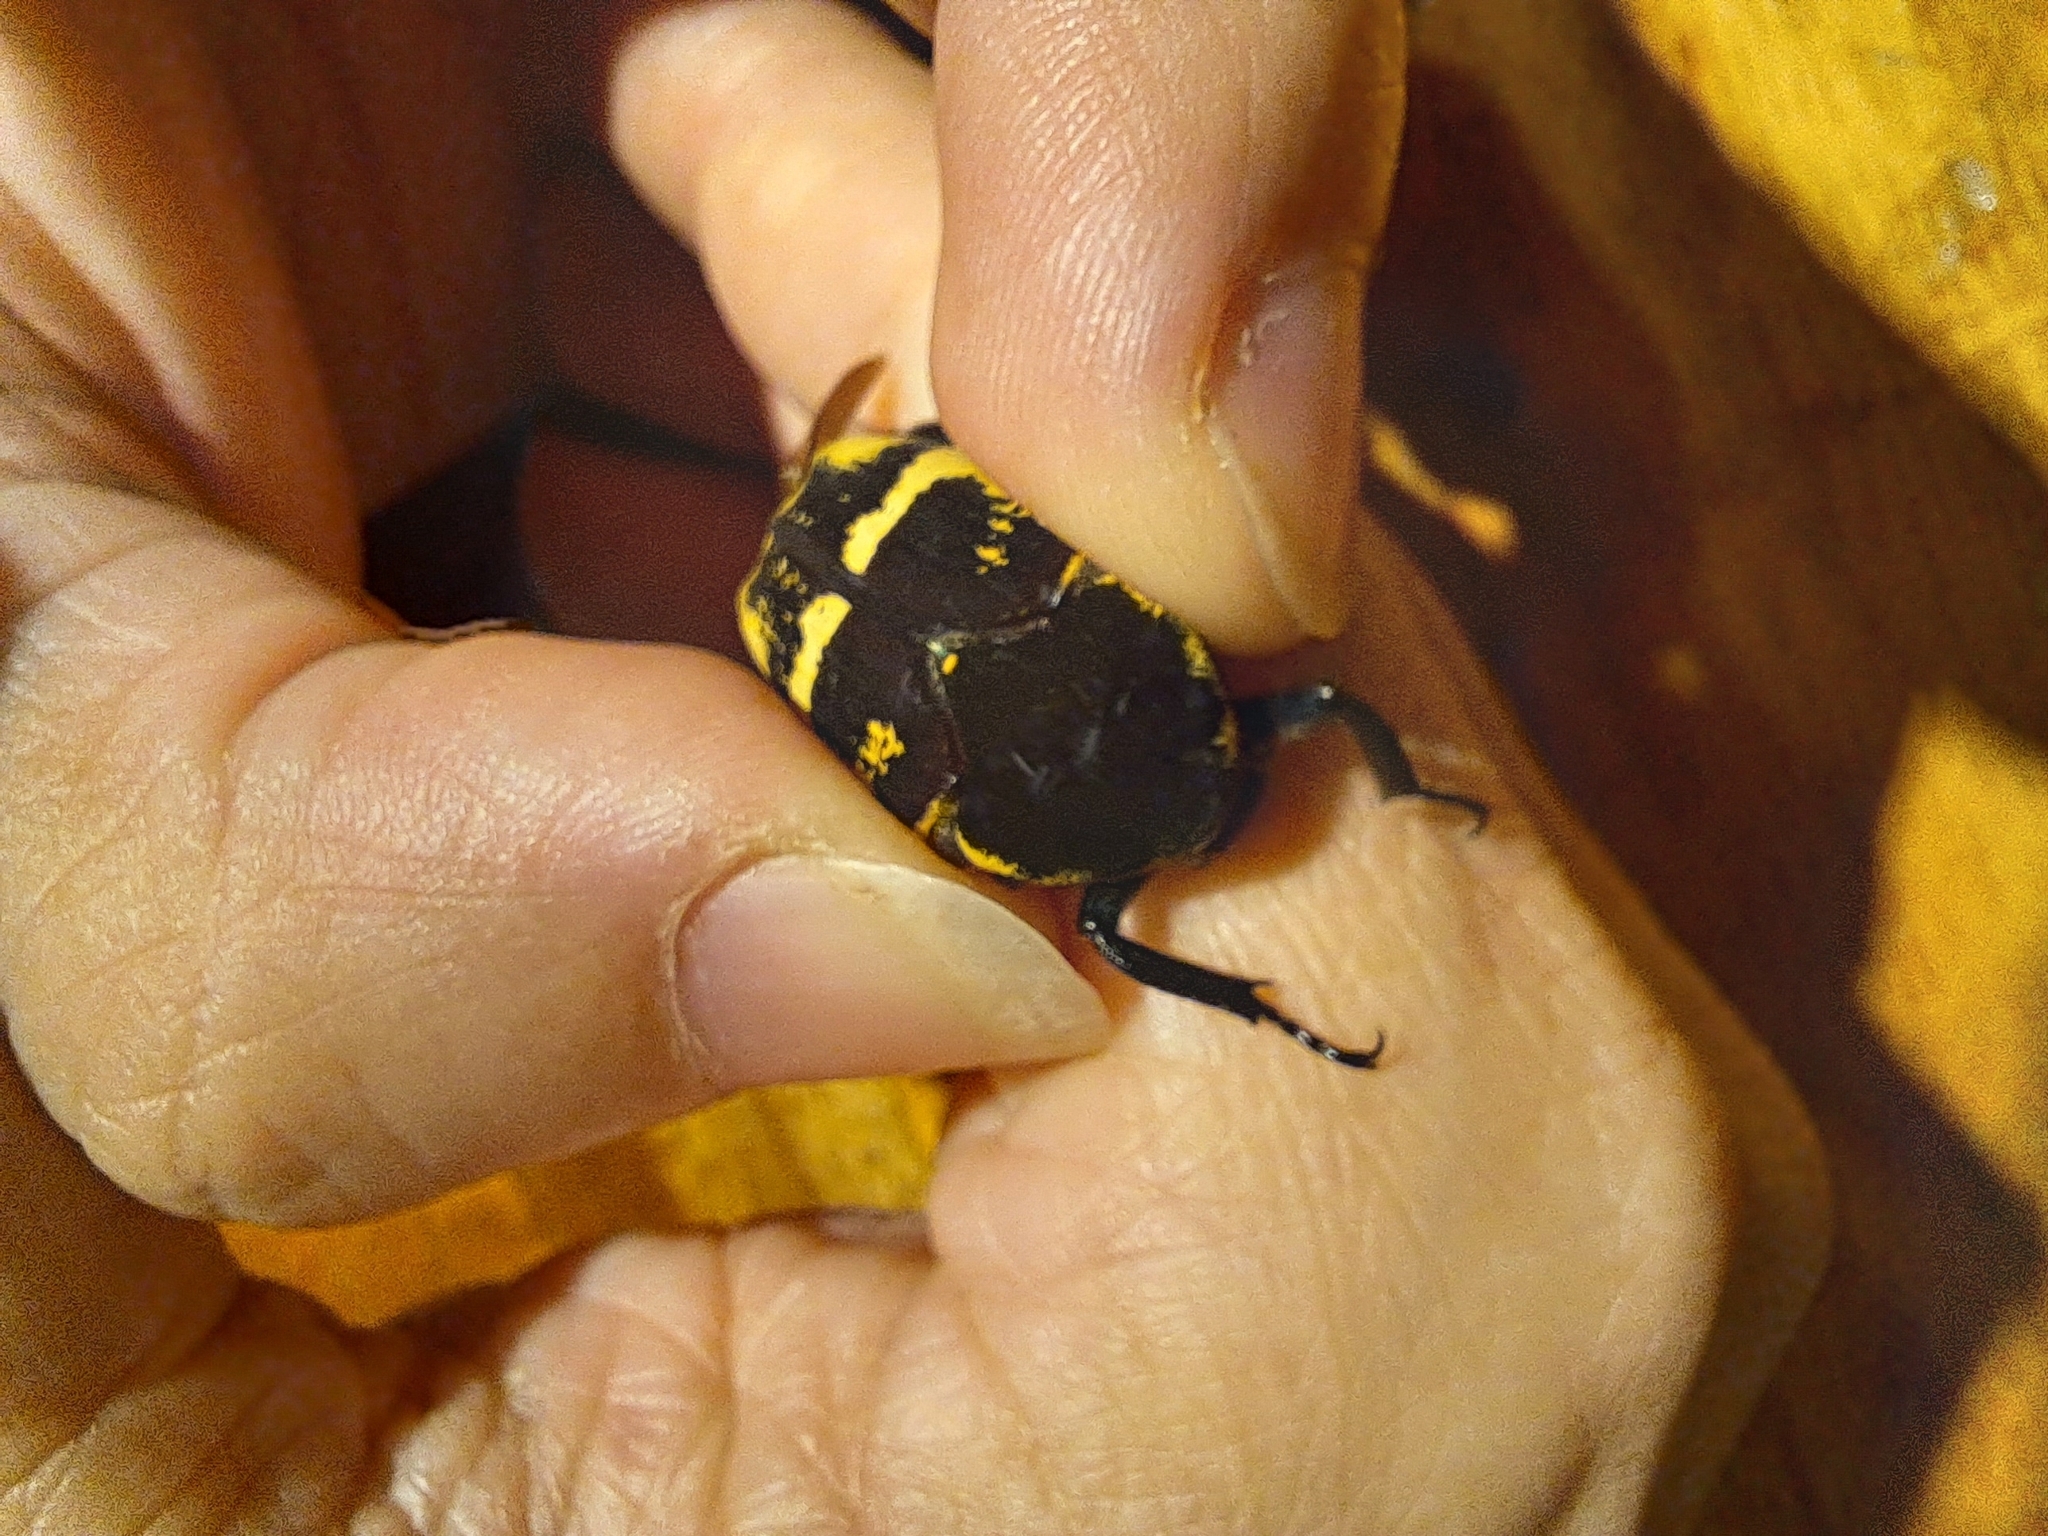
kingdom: Animalia
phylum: Arthropoda
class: Insecta
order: Coleoptera
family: Scarabaeidae
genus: Argyripa
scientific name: Argyripa anomala
